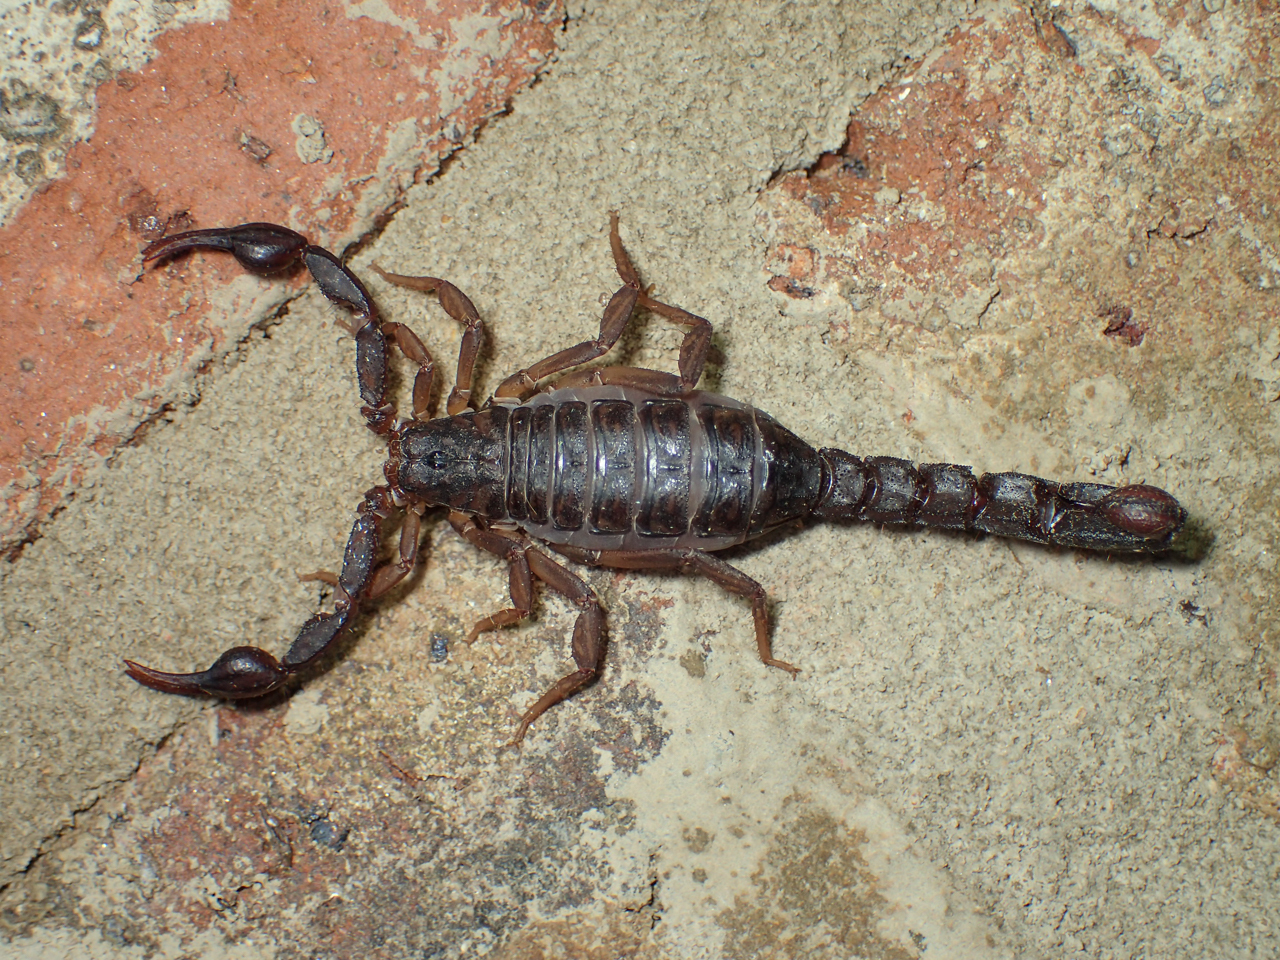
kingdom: Animalia
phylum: Arthropoda
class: Arachnida
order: Scorpiones
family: Vaejovidae
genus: Vaejovis
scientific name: Vaejovis carolinianus
